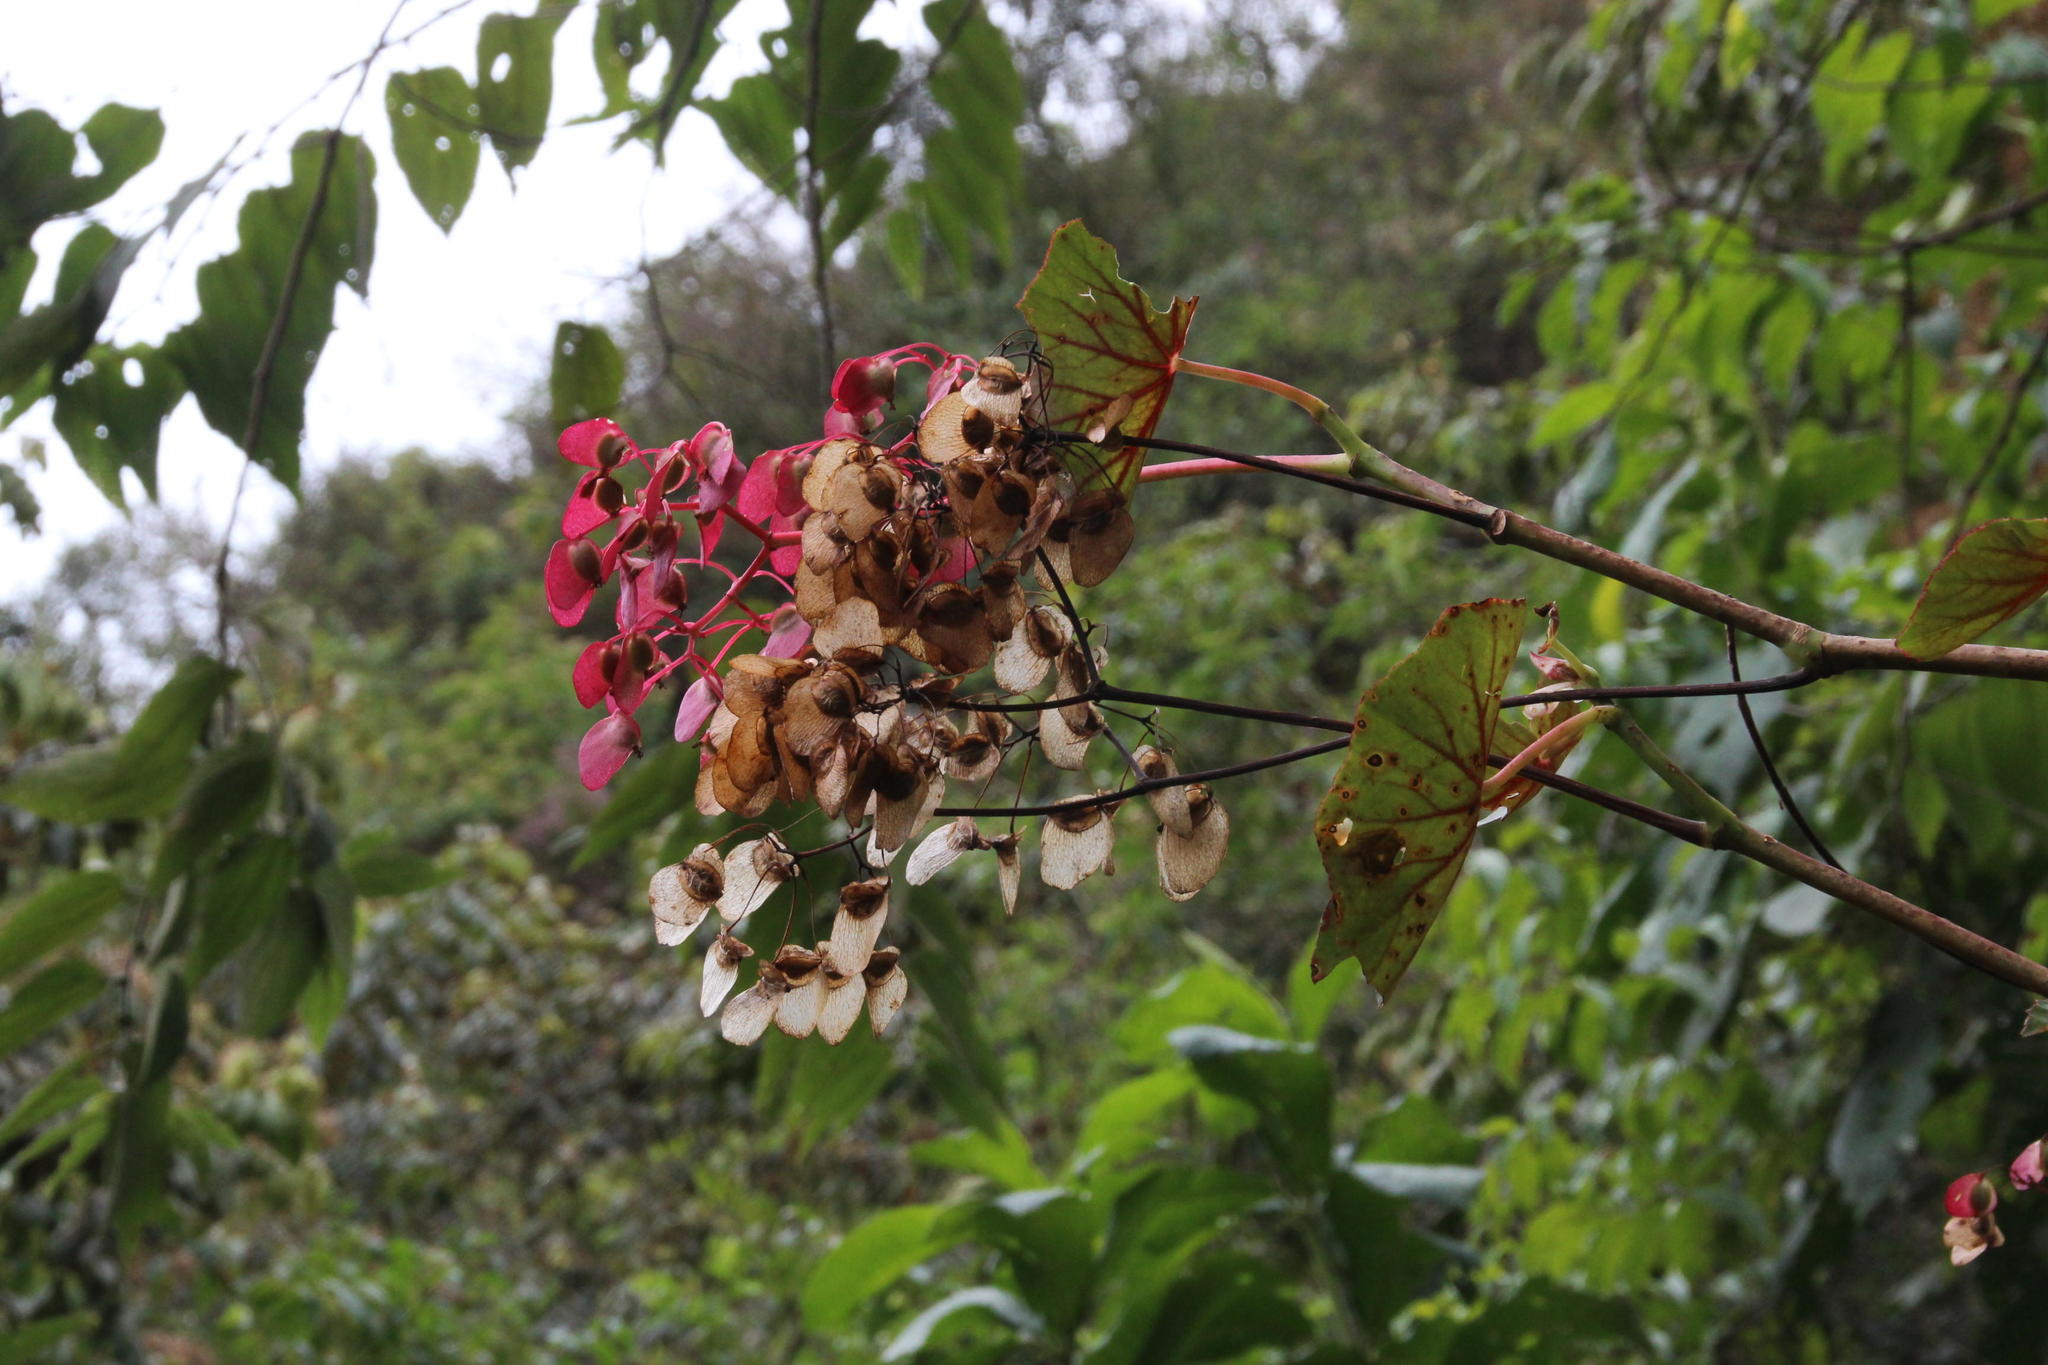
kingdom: Plantae
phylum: Tracheophyta
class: Magnoliopsida
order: Cucurbitales
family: Begoniaceae
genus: Begonia
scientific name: Begonia bracteosa
